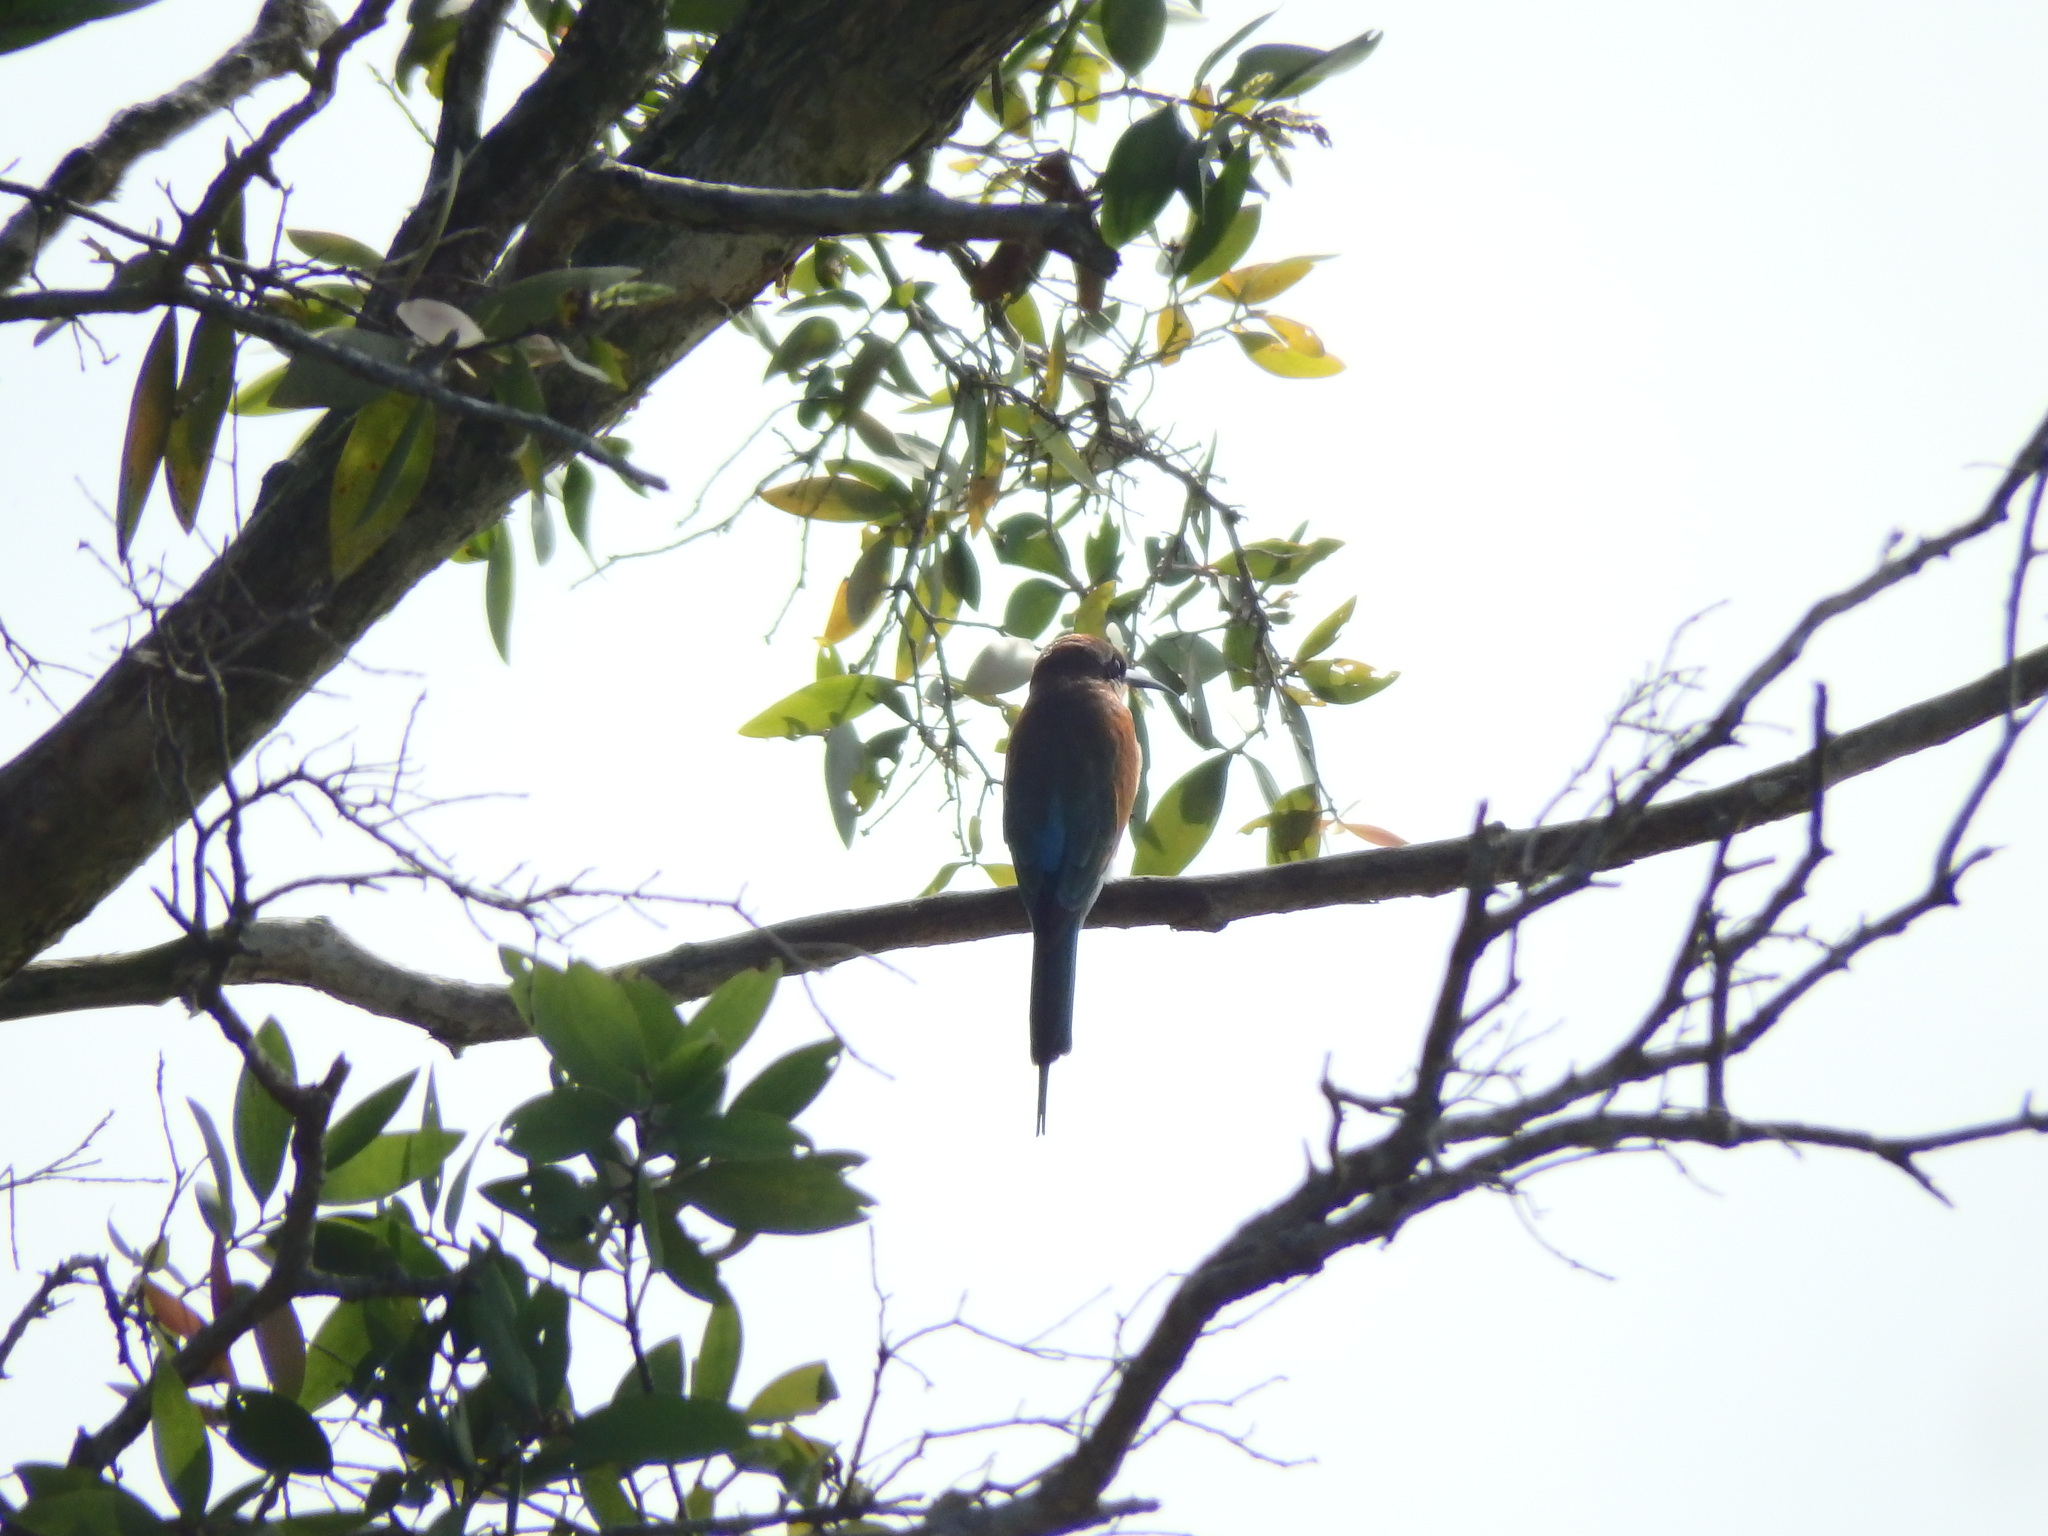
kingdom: Animalia
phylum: Chordata
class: Aves
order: Coraciiformes
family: Meropidae
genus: Merops
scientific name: Merops philippinus
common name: Blue-tailed bee-eater
